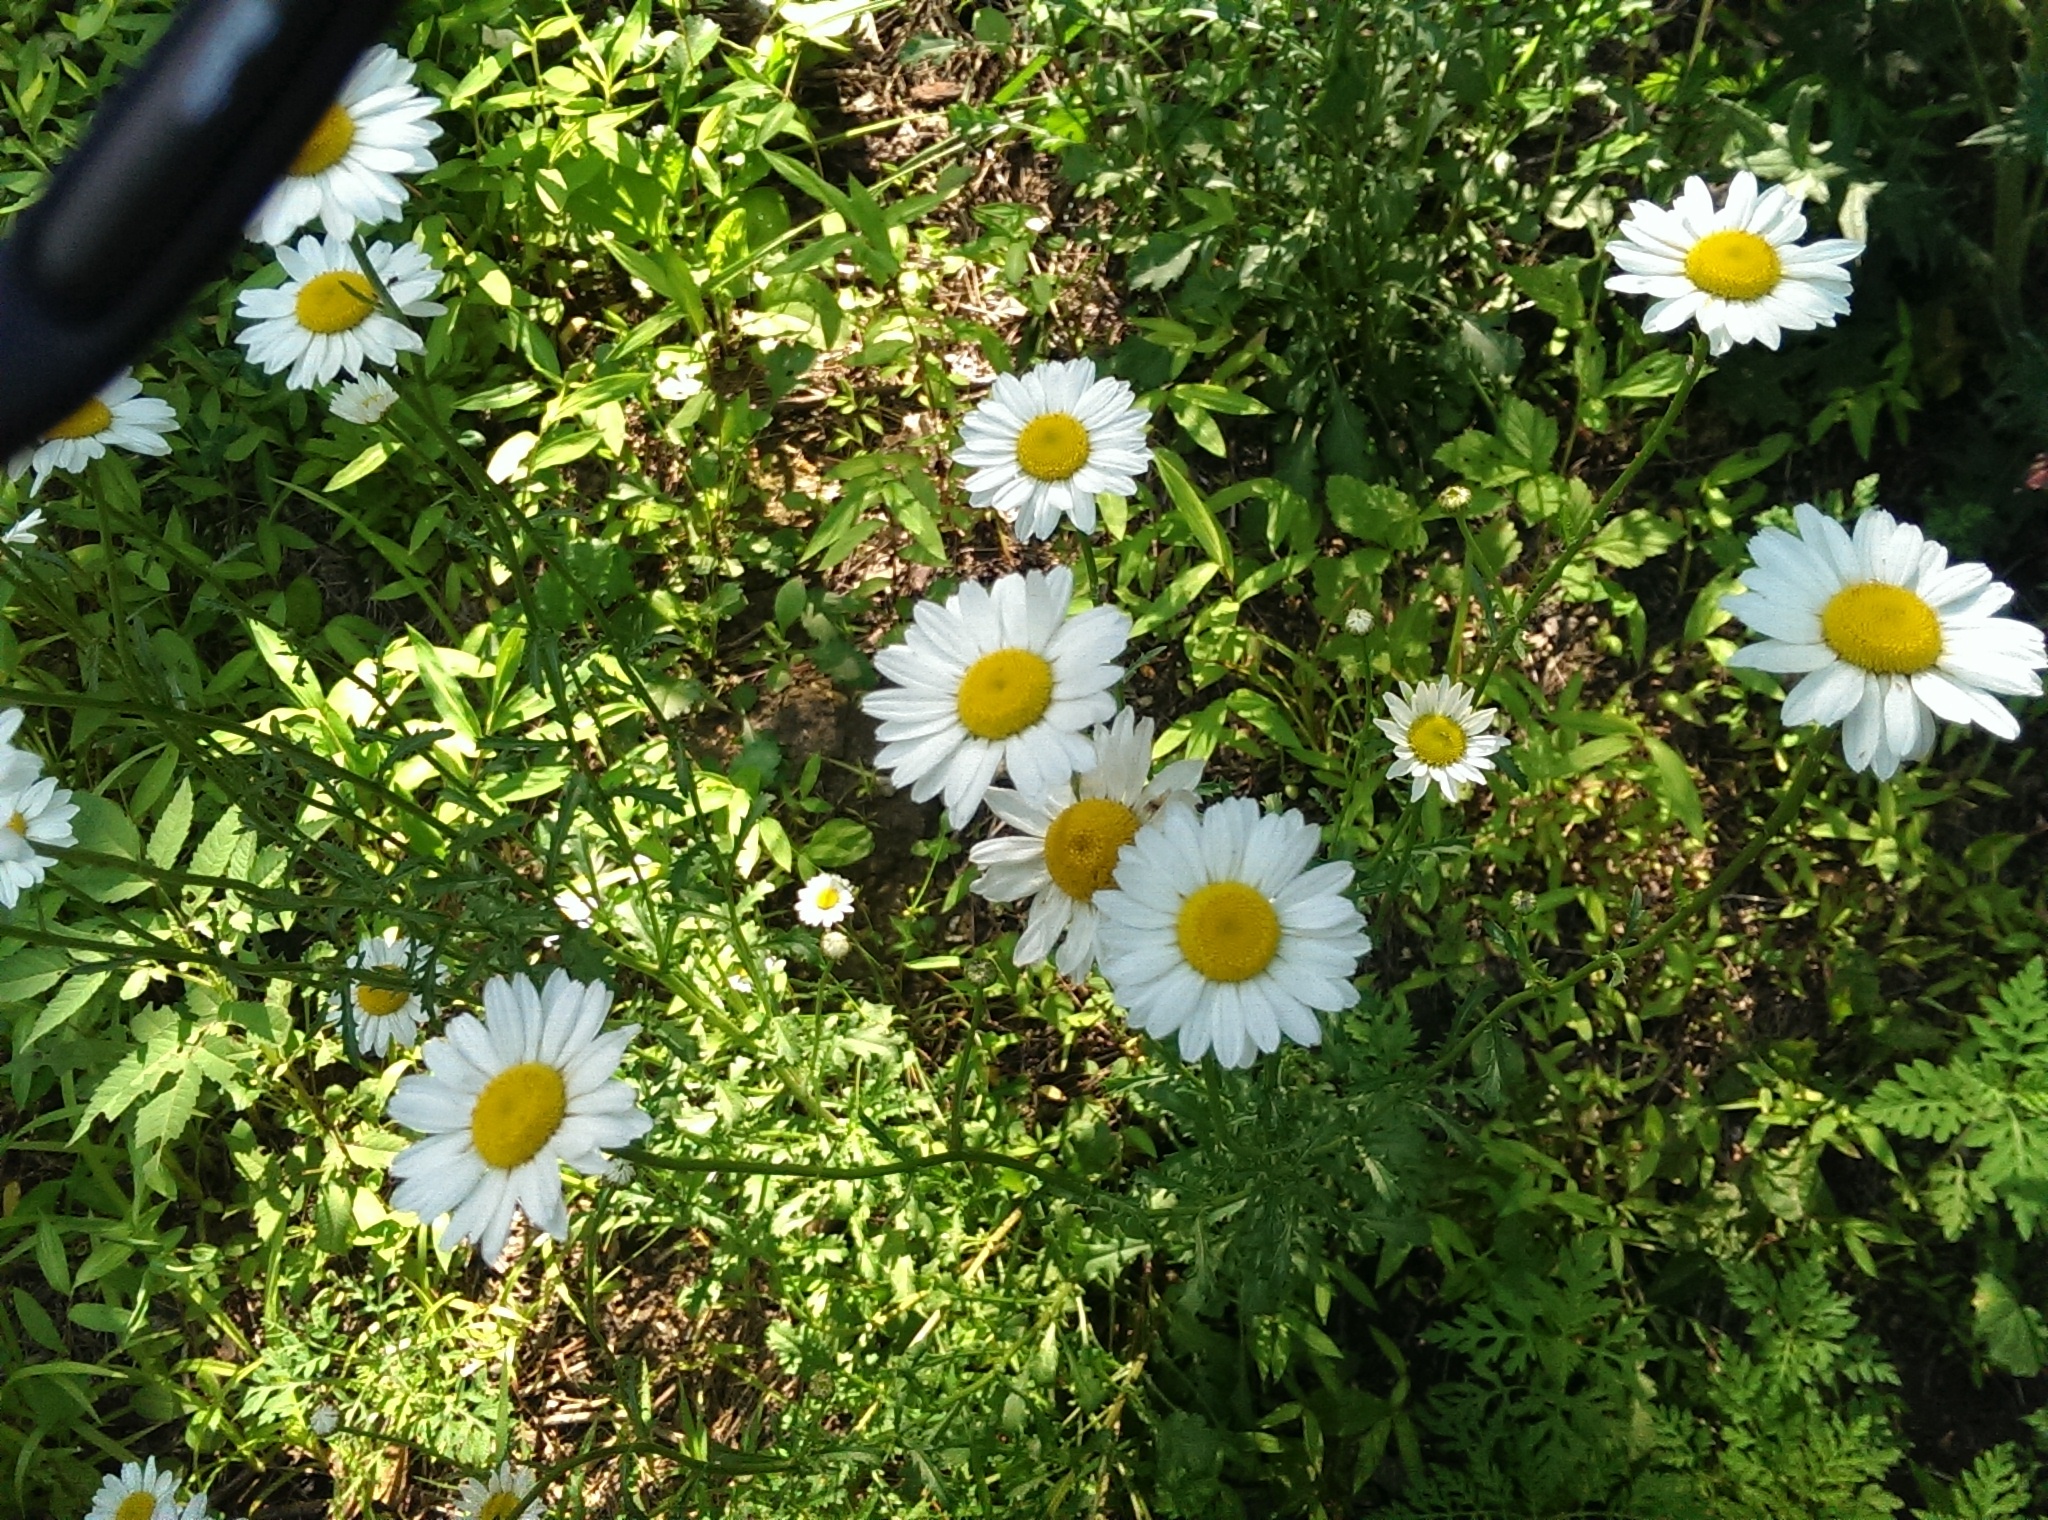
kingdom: Plantae
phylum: Tracheophyta
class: Magnoliopsida
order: Asterales
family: Asteraceae
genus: Leucanthemum
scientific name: Leucanthemum vulgare
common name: Oxeye daisy
